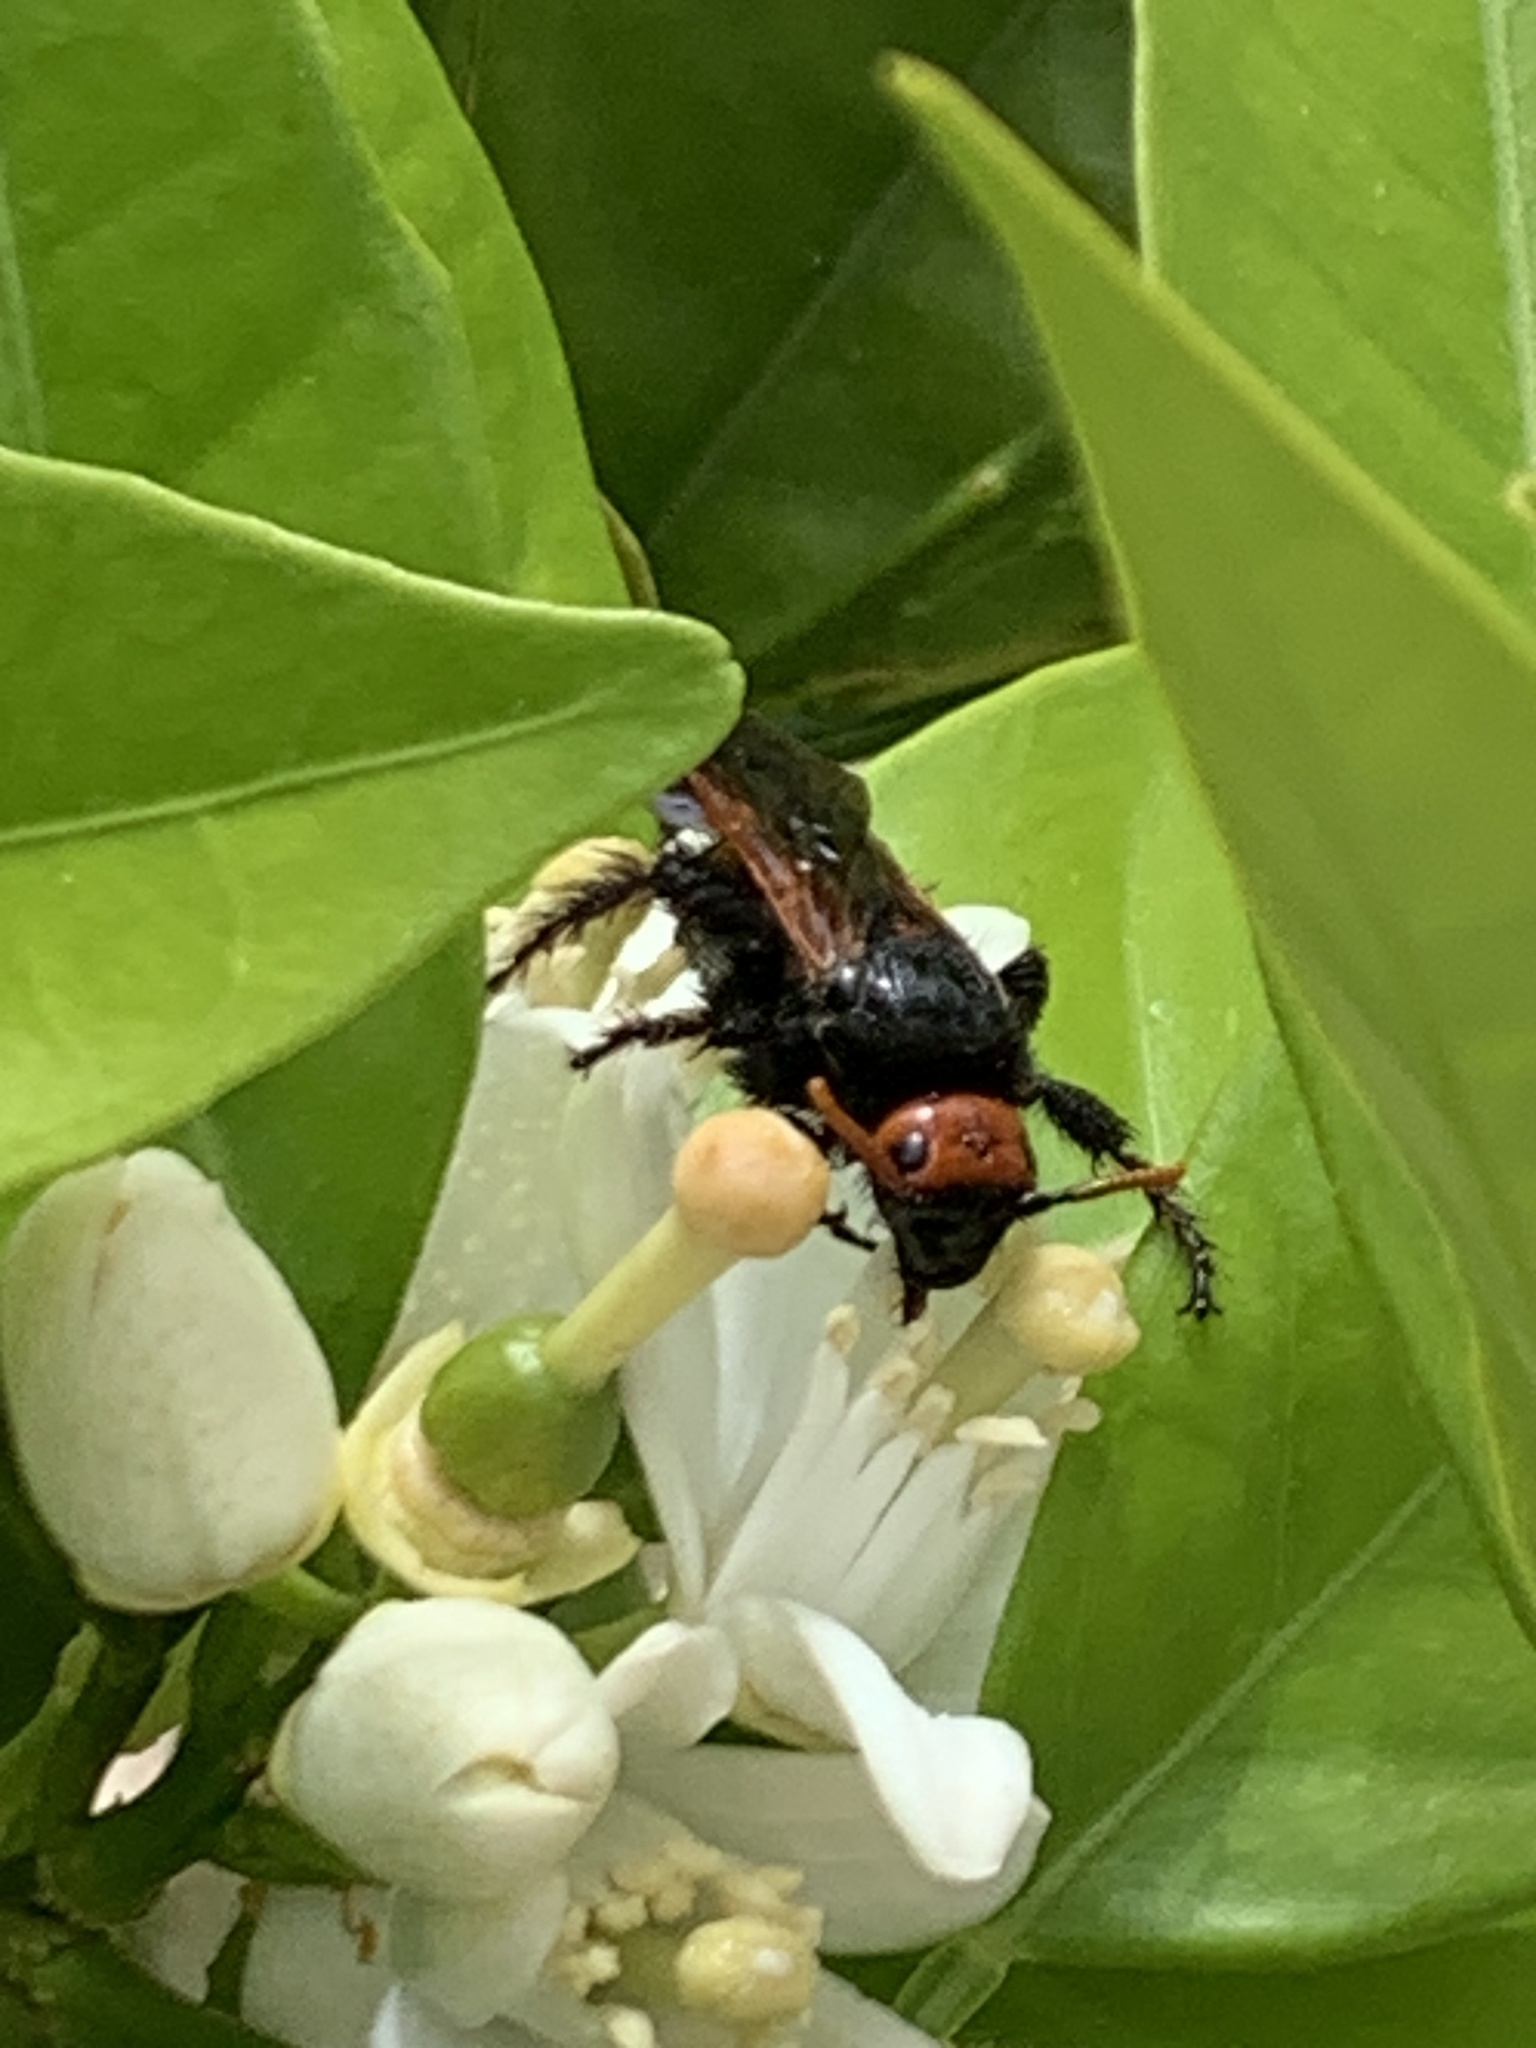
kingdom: Animalia
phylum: Arthropoda
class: Insecta
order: Hymenoptera
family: Scoliidae
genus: Megascolia
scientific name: Megascolia bidens
